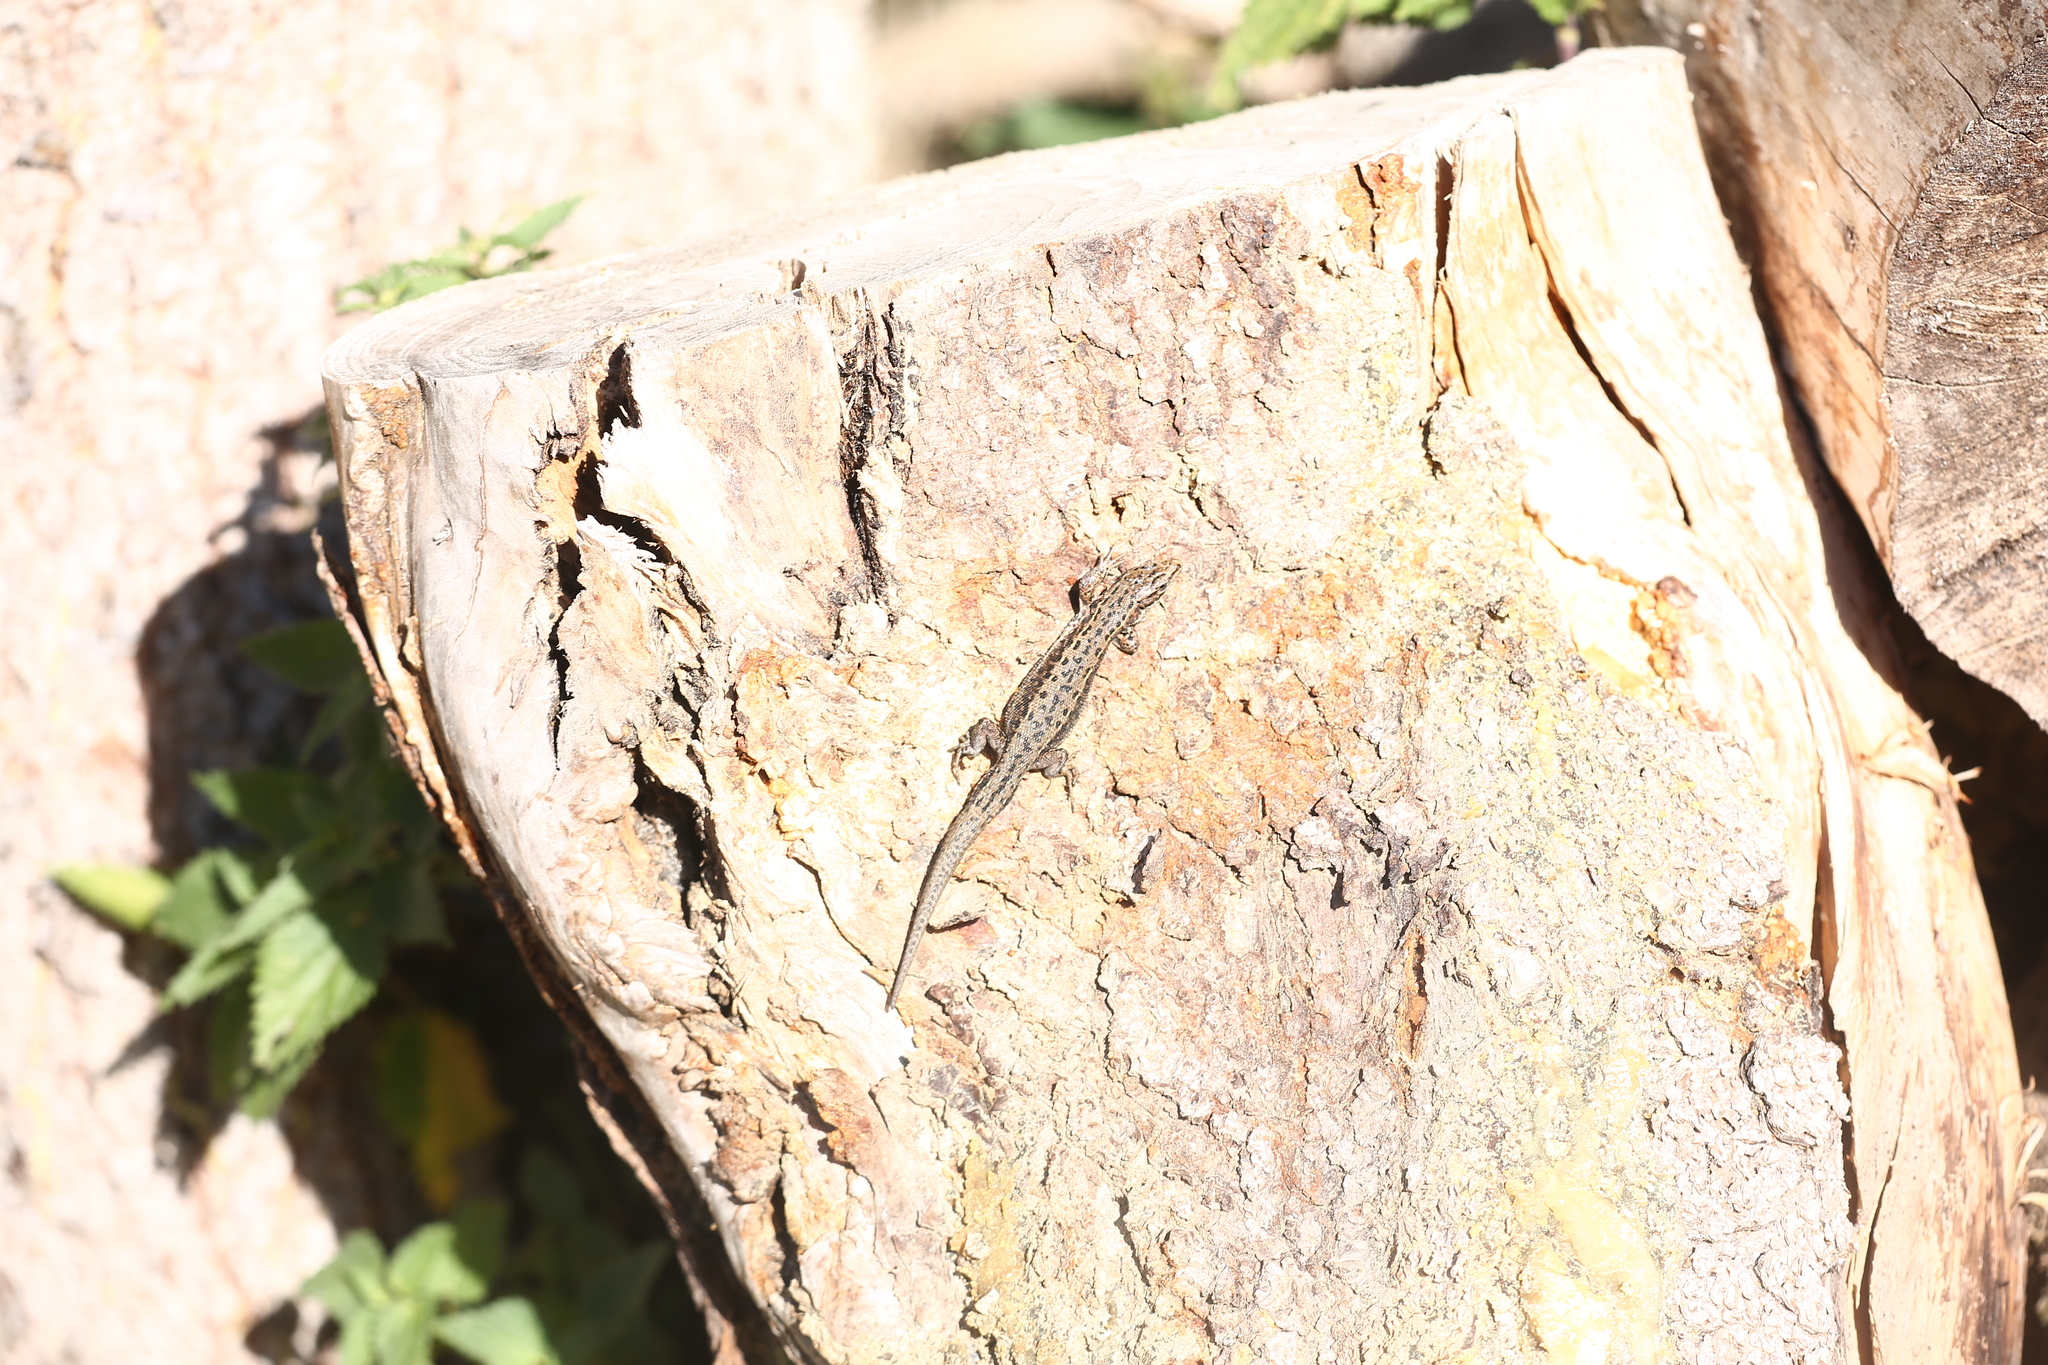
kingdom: Animalia
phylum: Chordata
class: Squamata
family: Lacertidae
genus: Zootoca
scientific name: Zootoca vivipara
